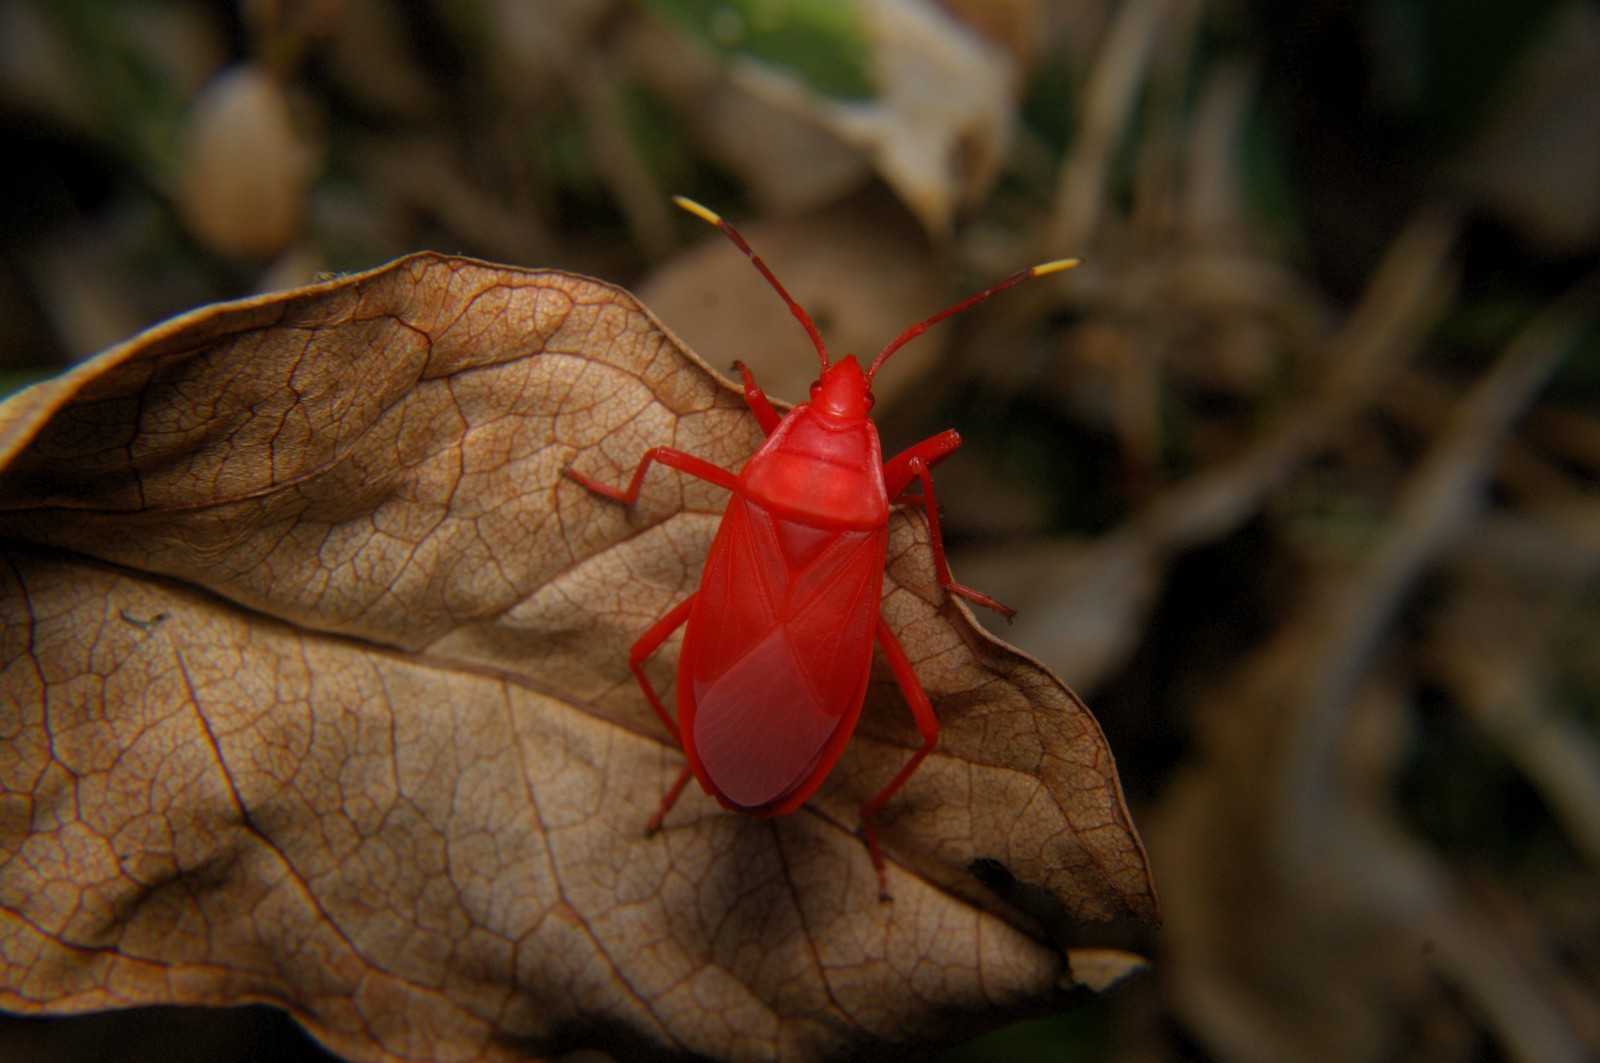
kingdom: Animalia
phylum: Arthropoda
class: Insecta
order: Hemiptera
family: Pyrrhocoridae
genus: Probergrothius
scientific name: Probergrothius
